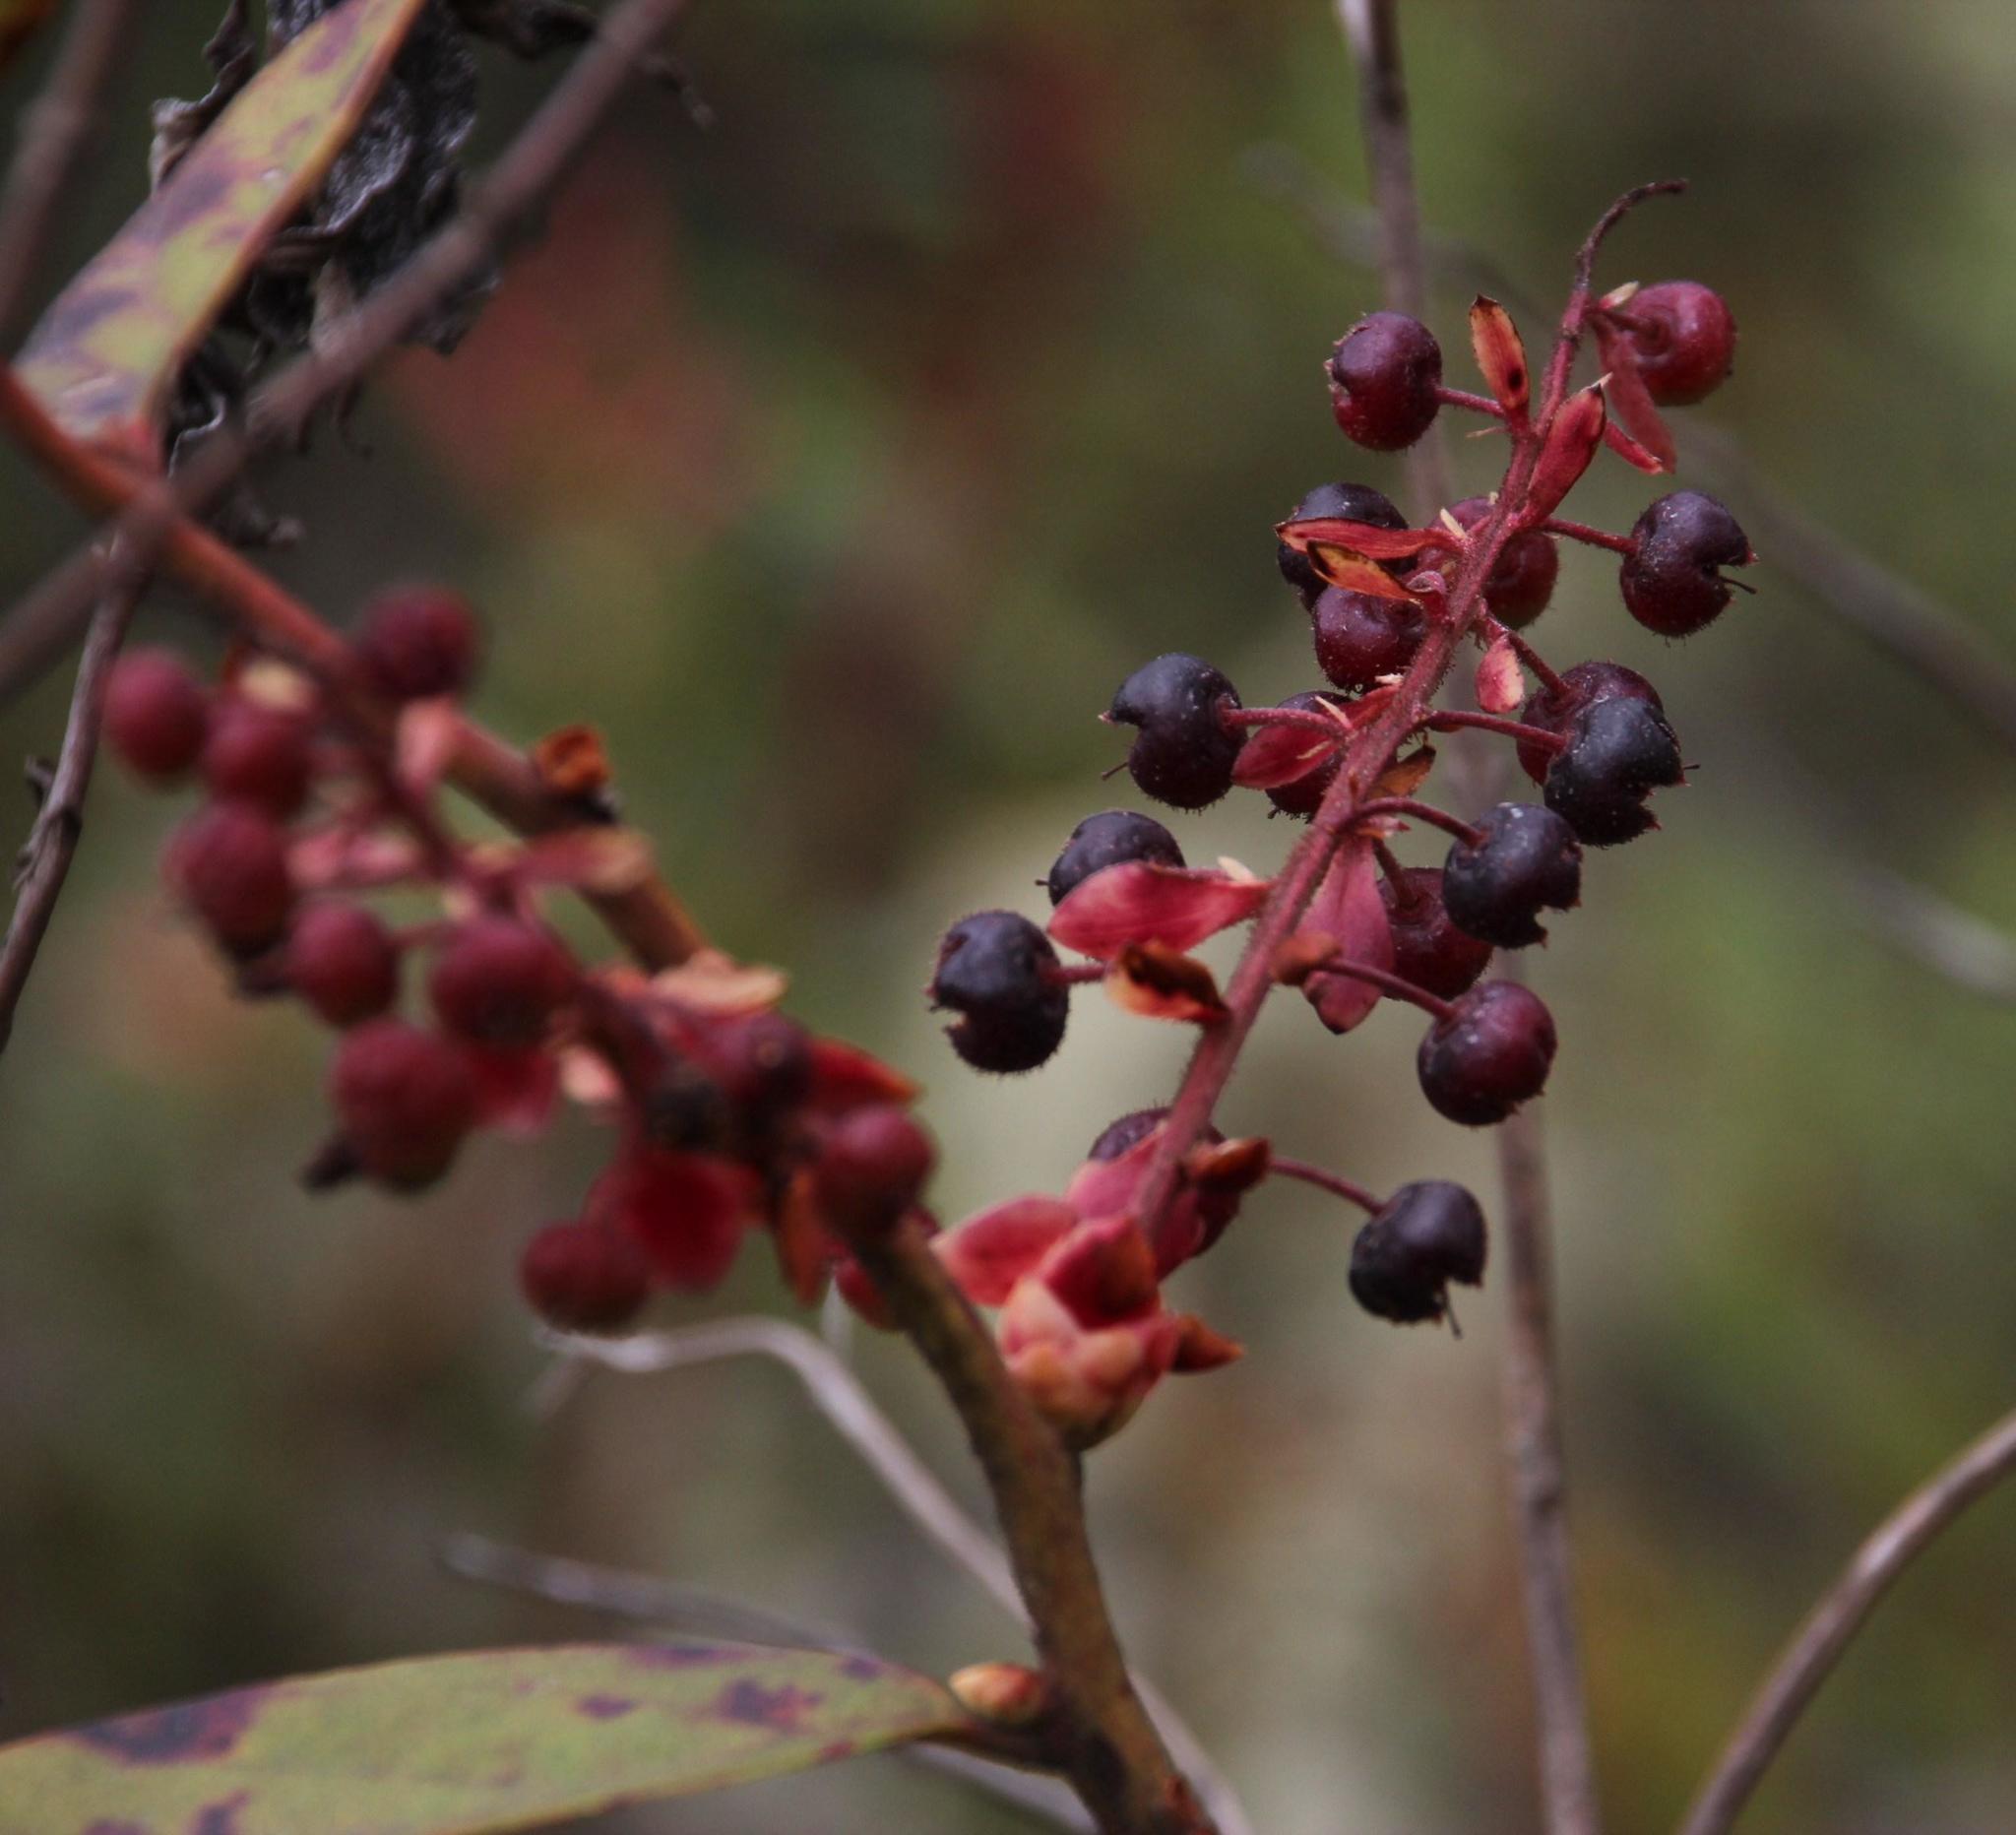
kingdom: Plantae
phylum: Tracheophyta
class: Magnoliopsida
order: Ericales
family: Ericaceae
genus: Gaultheria
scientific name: Gaultheria erecta
